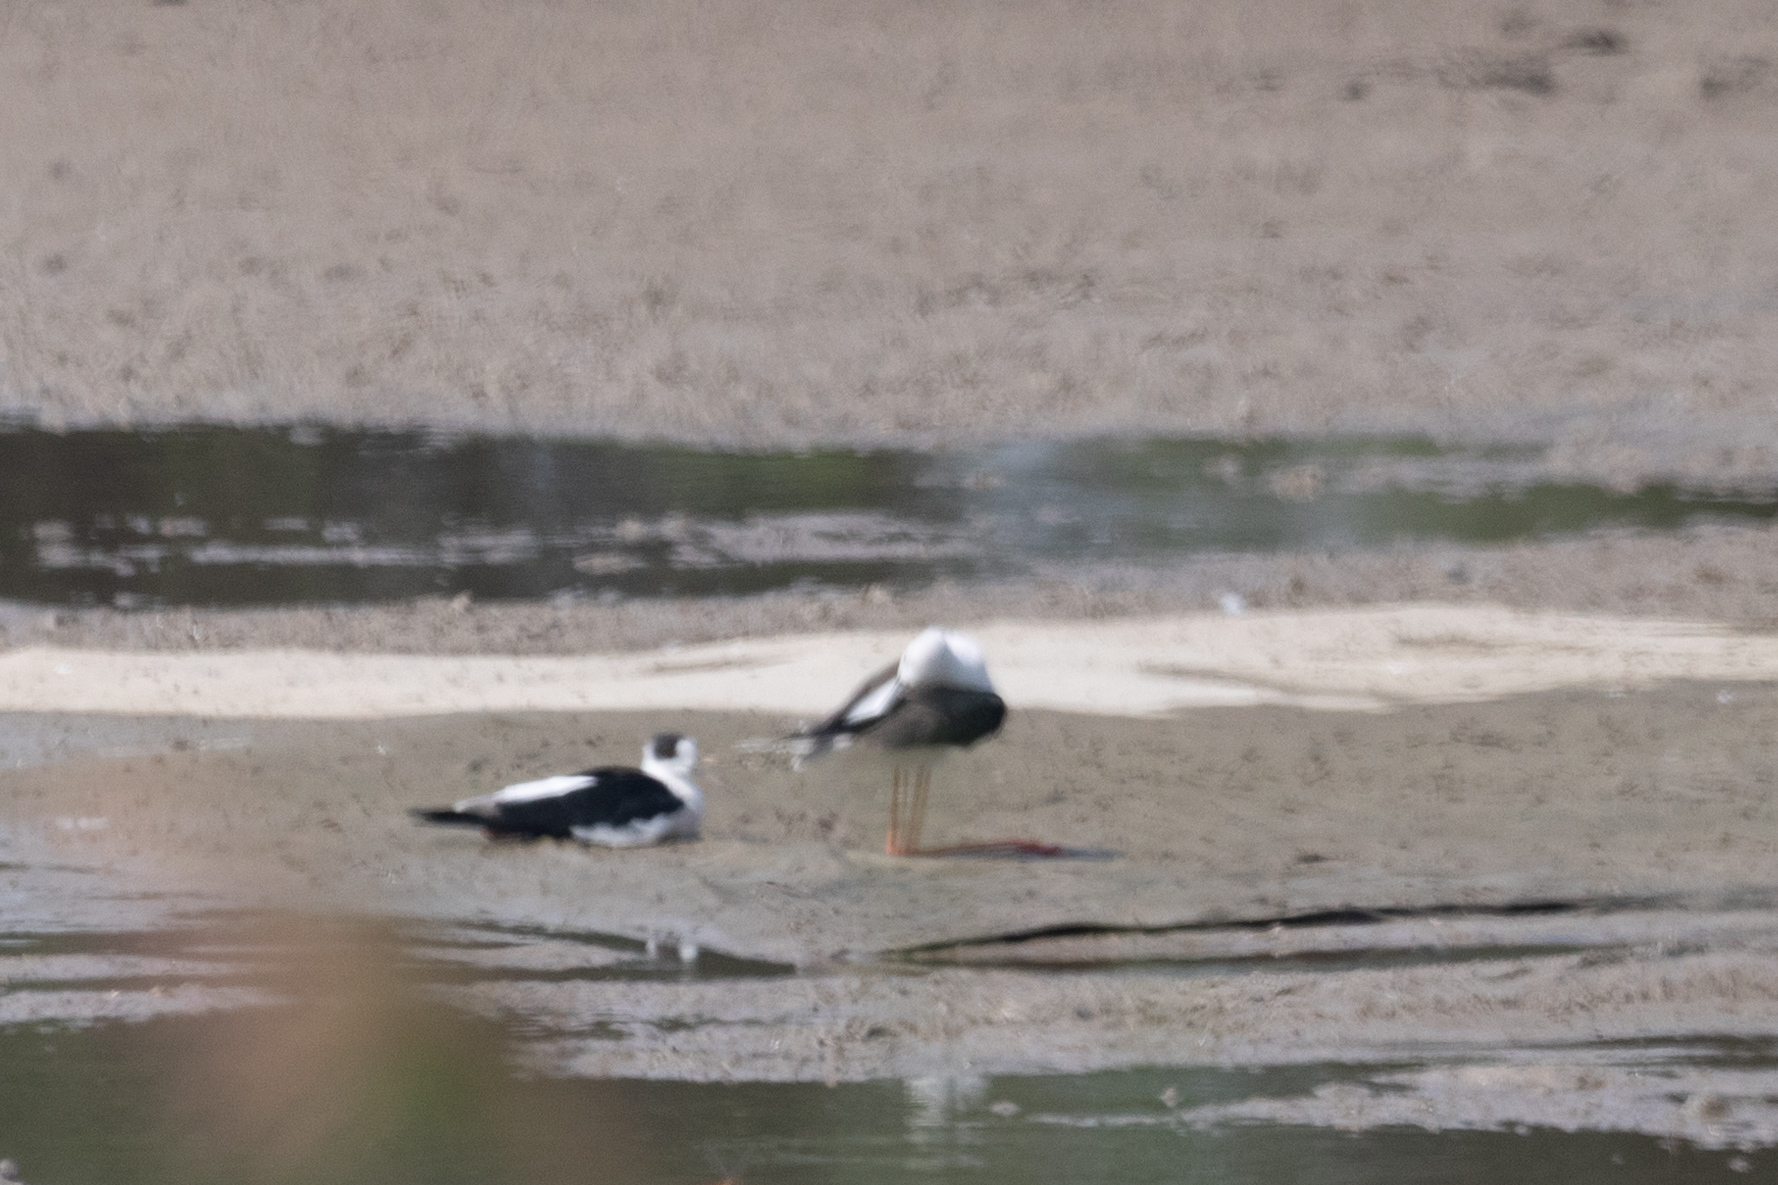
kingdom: Animalia
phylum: Chordata
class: Aves
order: Charadriiformes
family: Recurvirostridae
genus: Himantopus
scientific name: Himantopus himantopus
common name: Black-winged stilt
